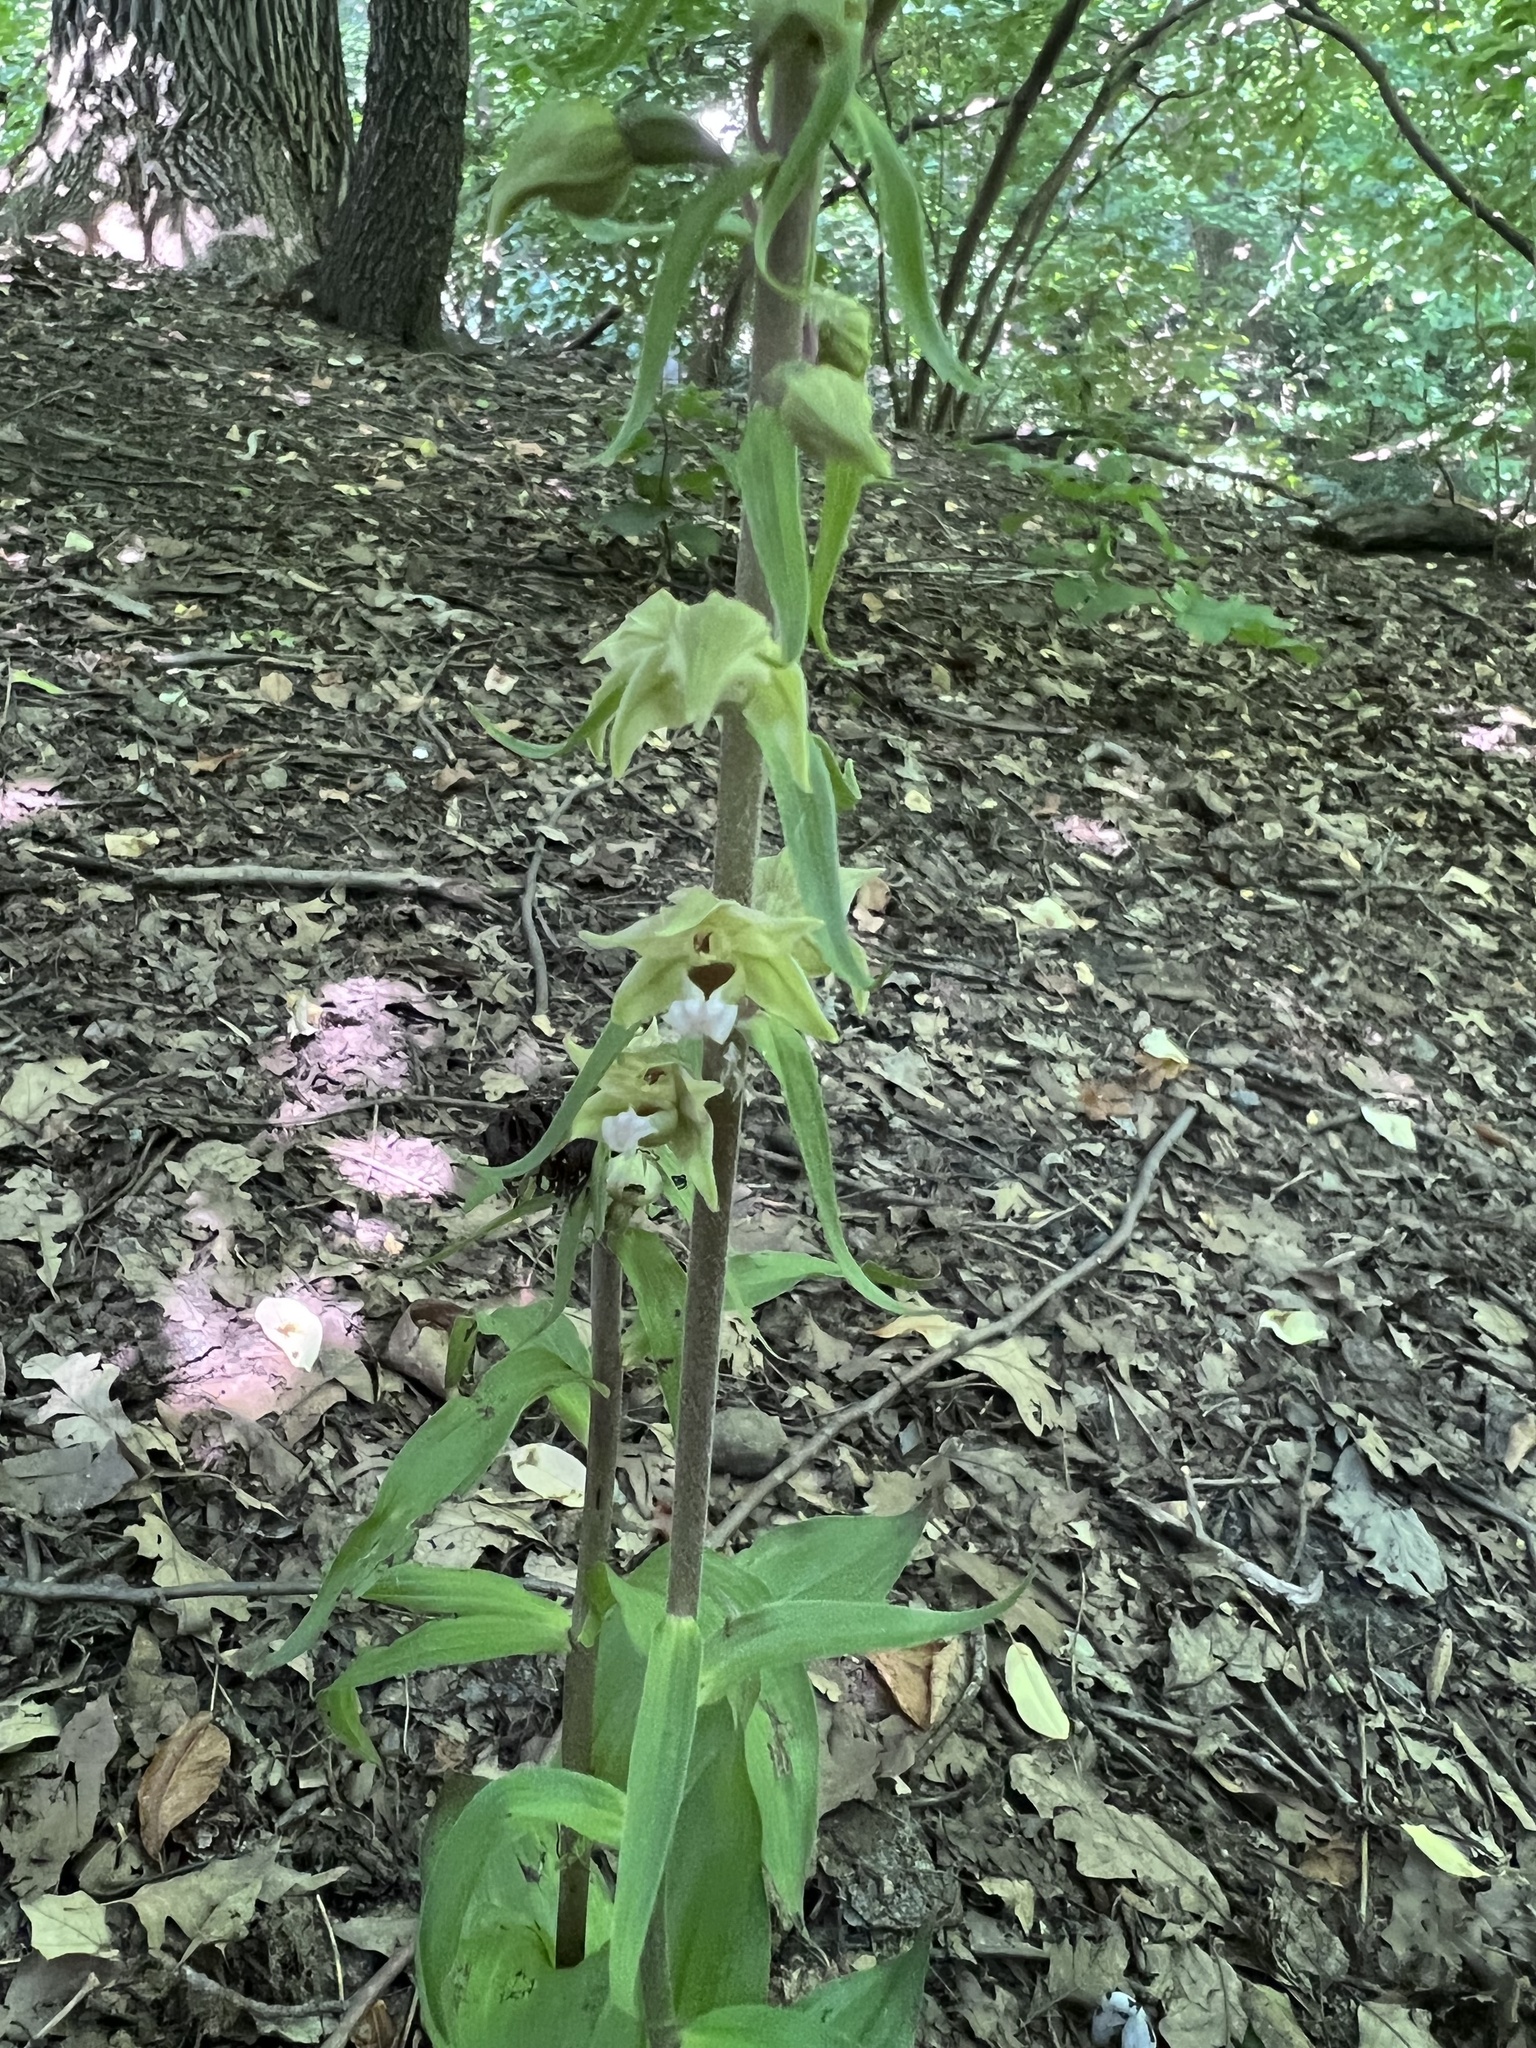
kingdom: Plantae
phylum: Tracheophyta
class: Liliopsida
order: Asparagales
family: Orchidaceae
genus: Epipactis
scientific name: Epipactis helleborine
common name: Broad-leaved helleborine
